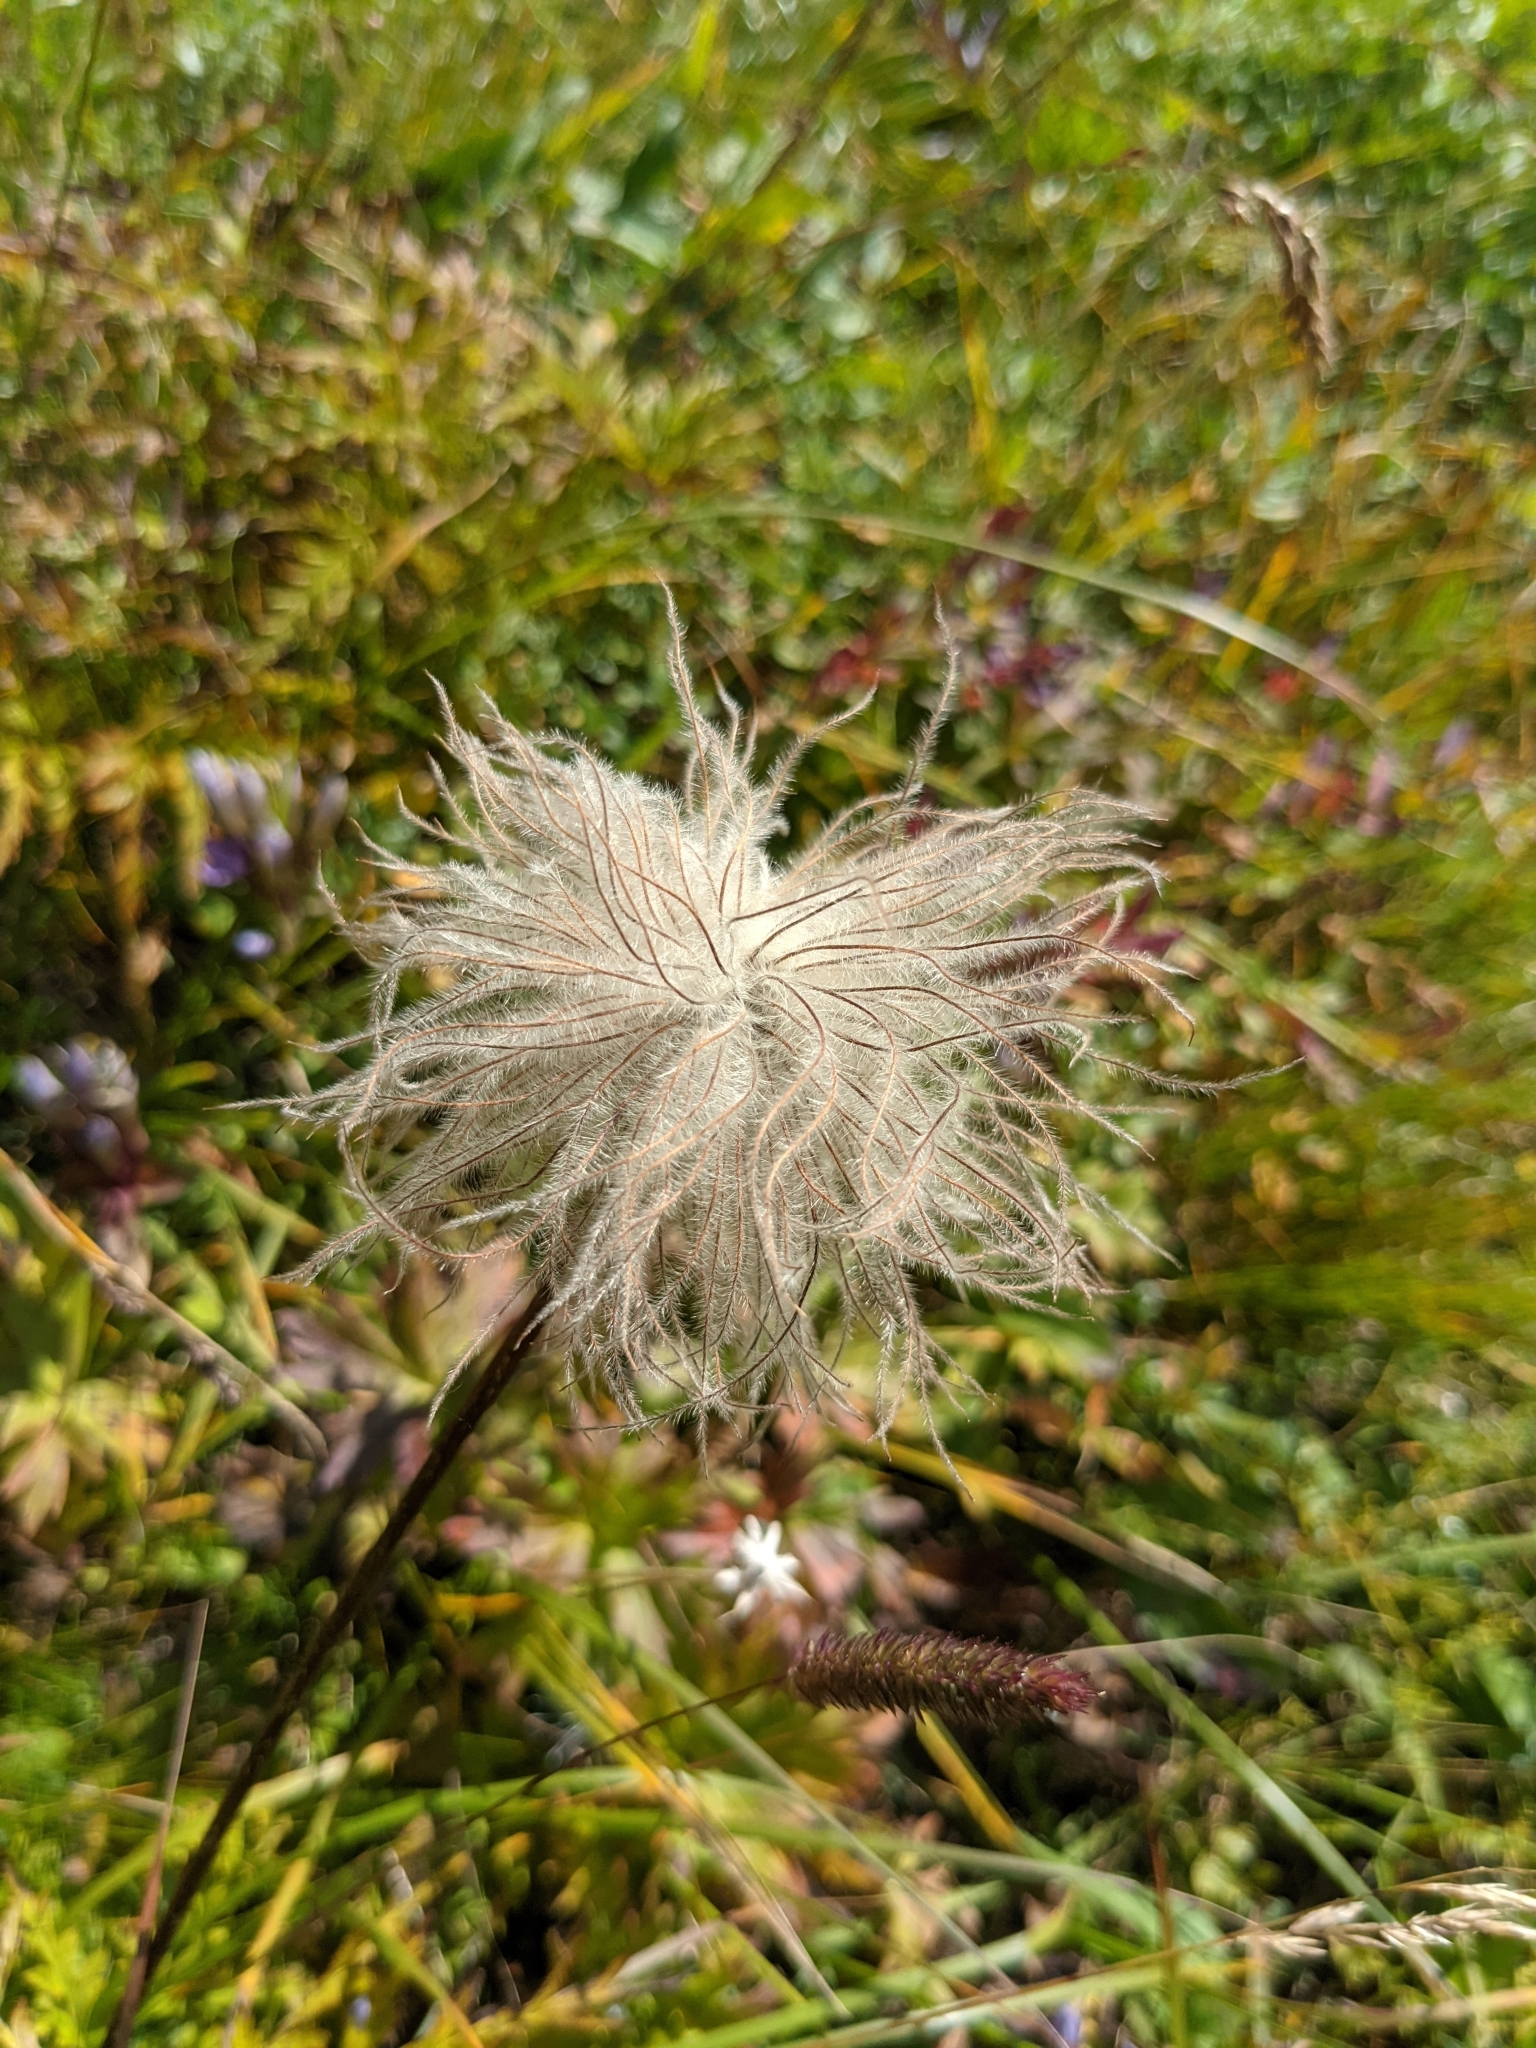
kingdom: Plantae
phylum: Tracheophyta
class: Magnoliopsida
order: Ranunculales
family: Ranunculaceae
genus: Pulsatilla
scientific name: Pulsatilla vulgaris
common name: Pasqueflower
